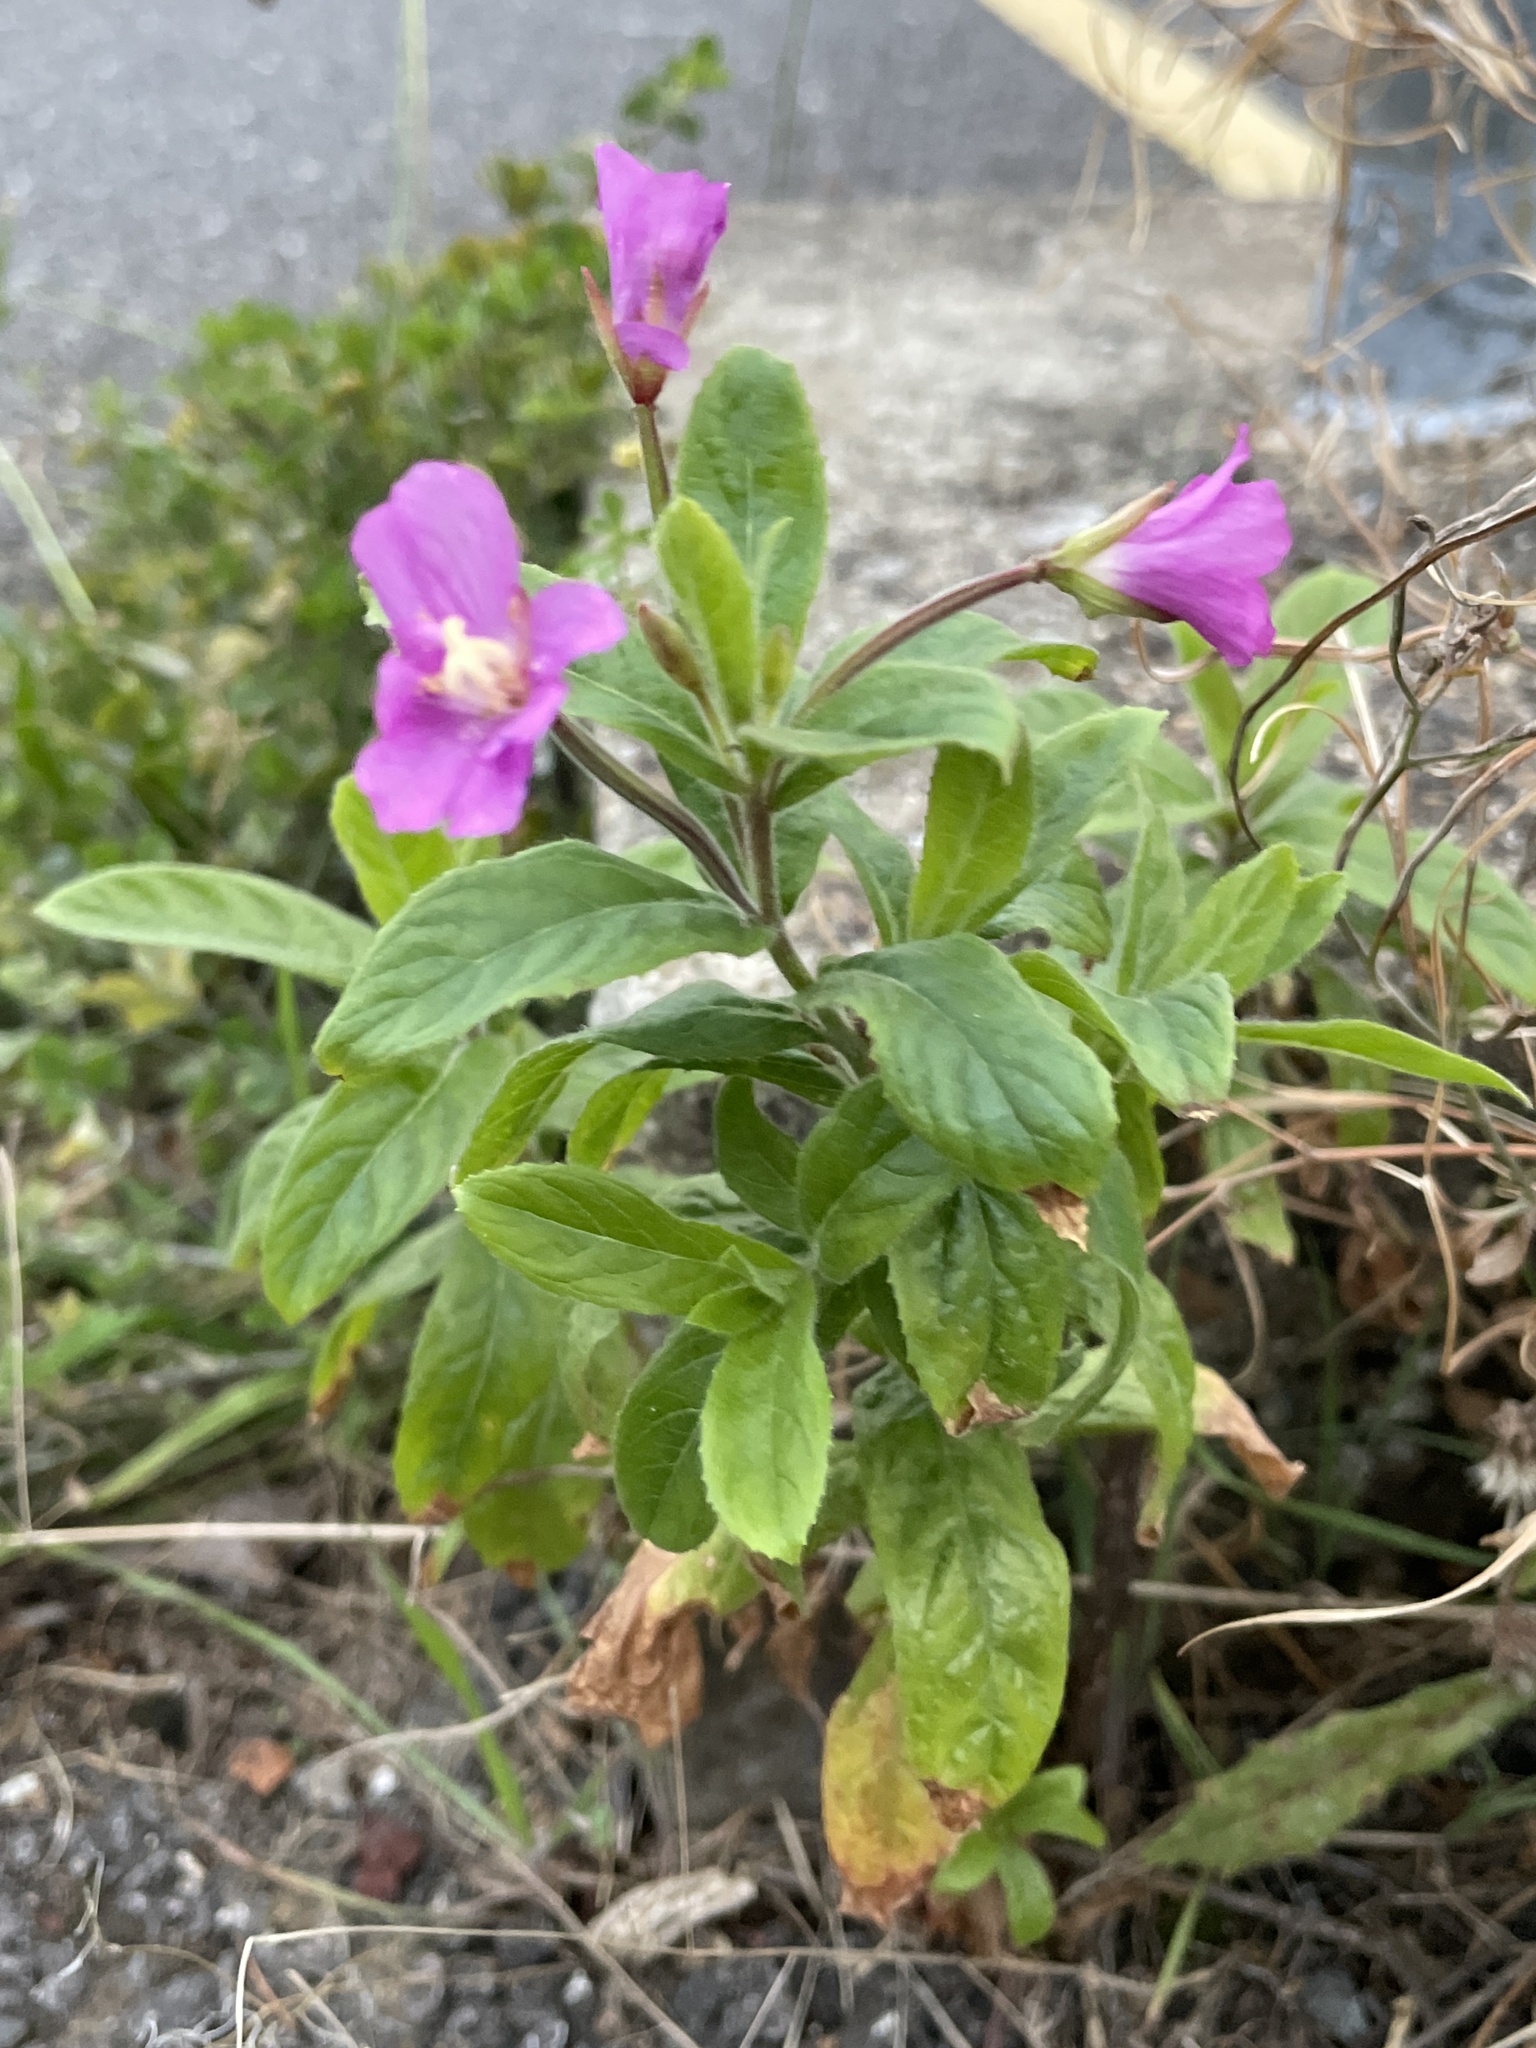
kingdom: Plantae
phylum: Tracheophyta
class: Magnoliopsida
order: Myrtales
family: Onagraceae
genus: Epilobium
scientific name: Epilobium hirsutum
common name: Great willowherb
